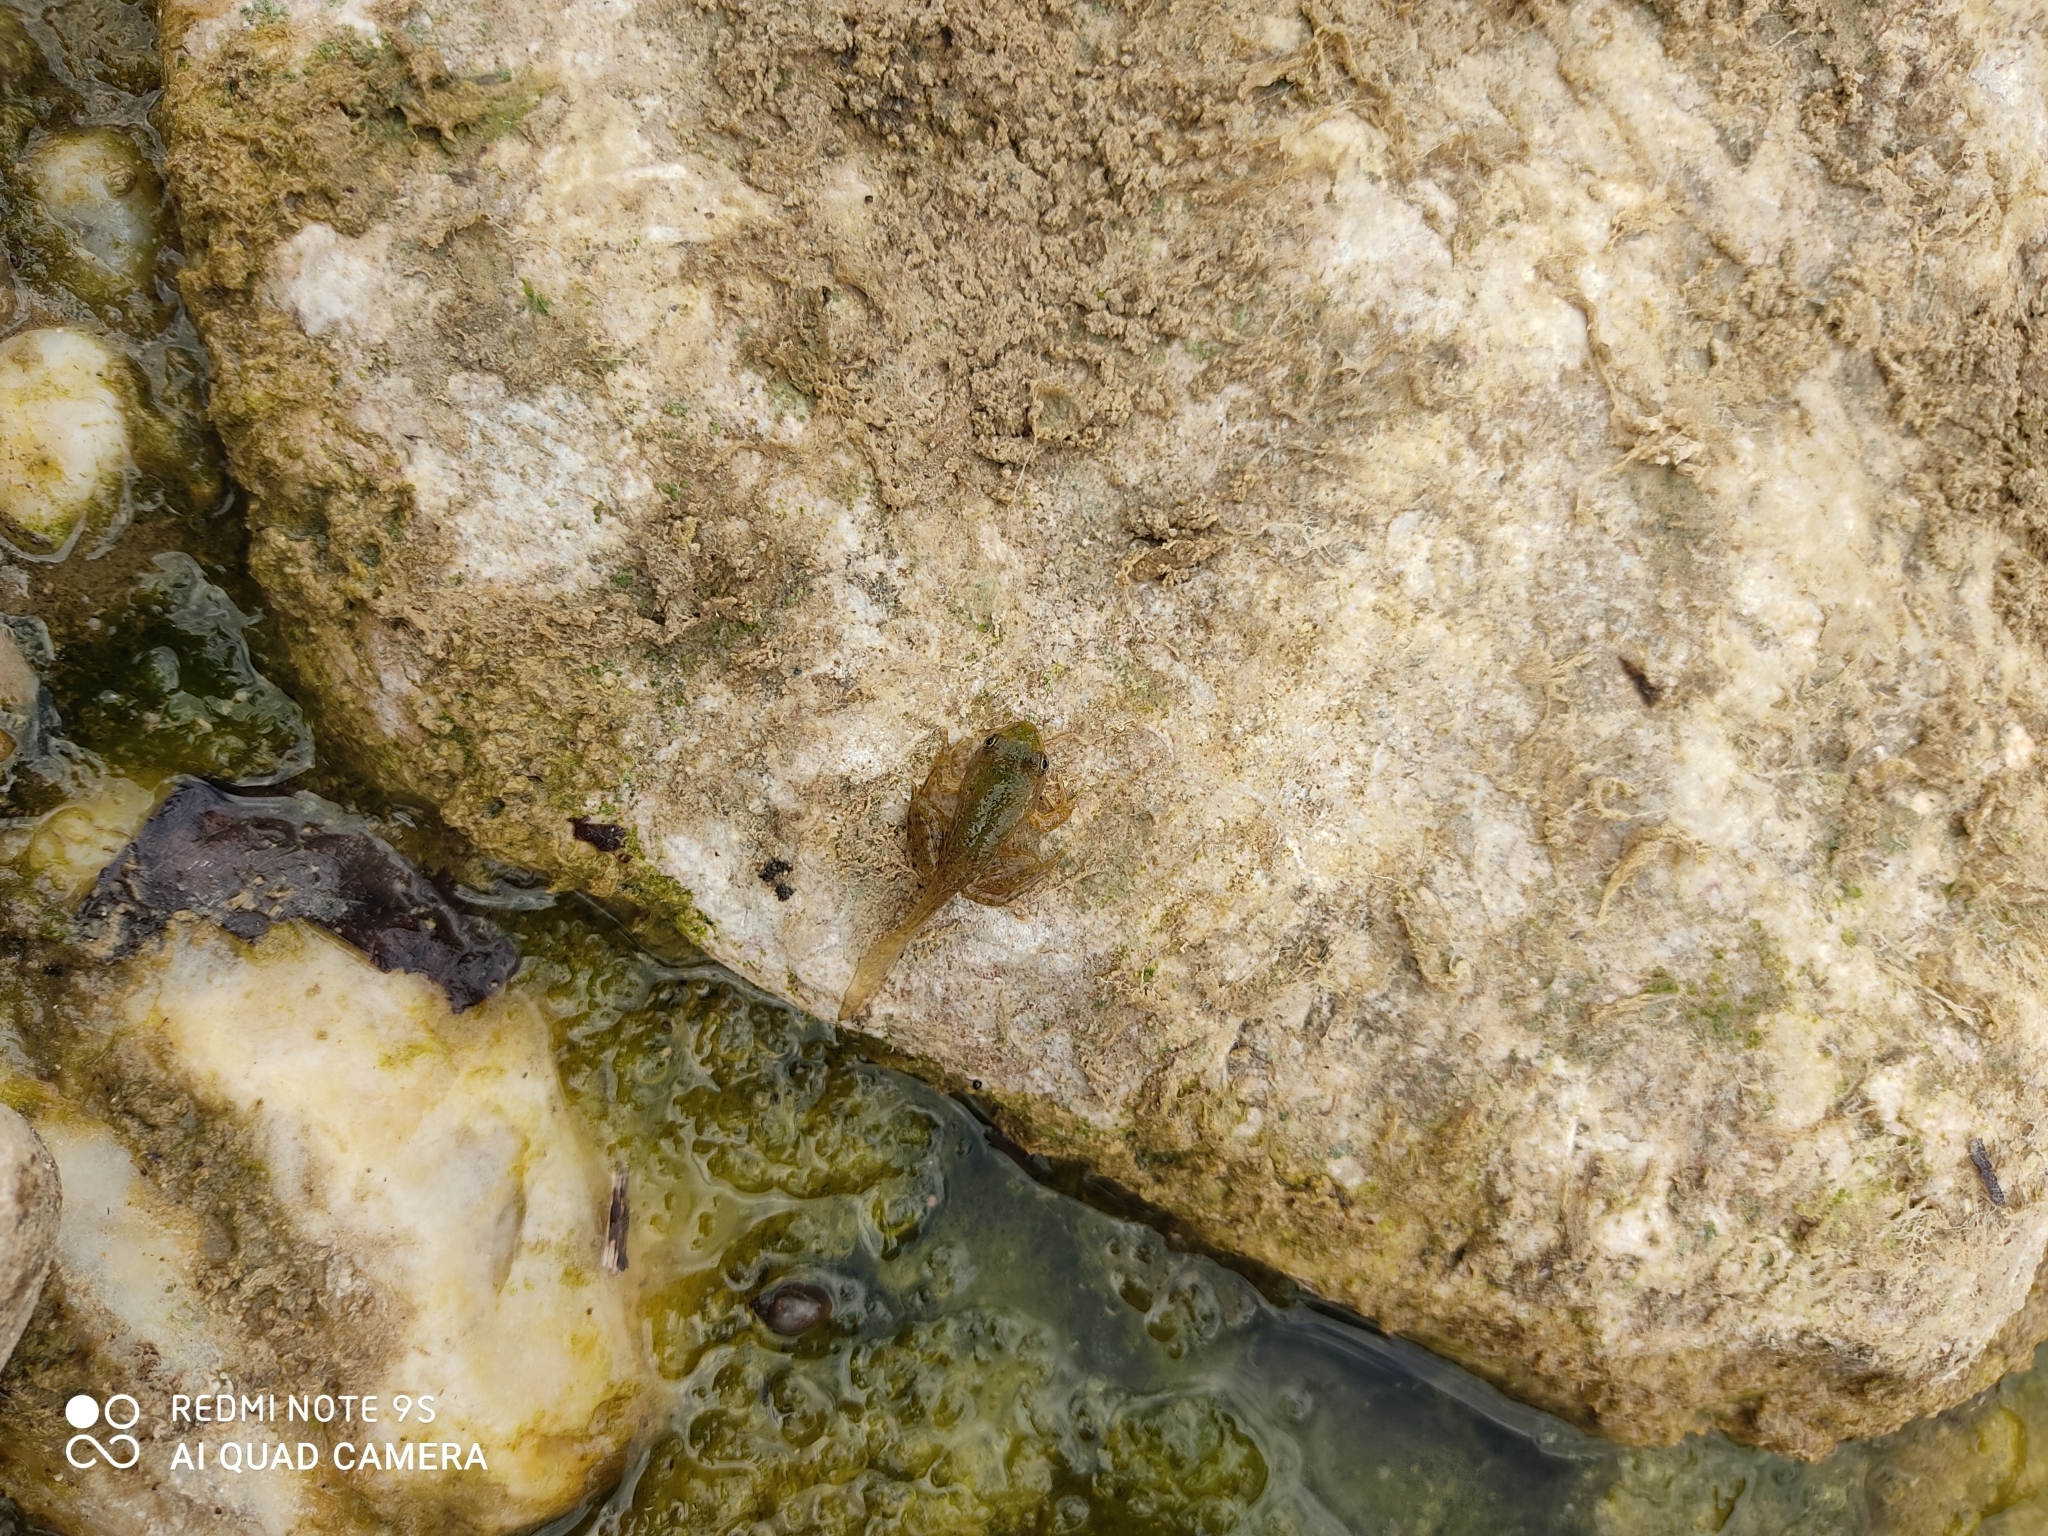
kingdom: Animalia
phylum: Chordata
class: Amphibia
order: Anura
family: Ranidae
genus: Pelophylax
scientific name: Pelophylax
